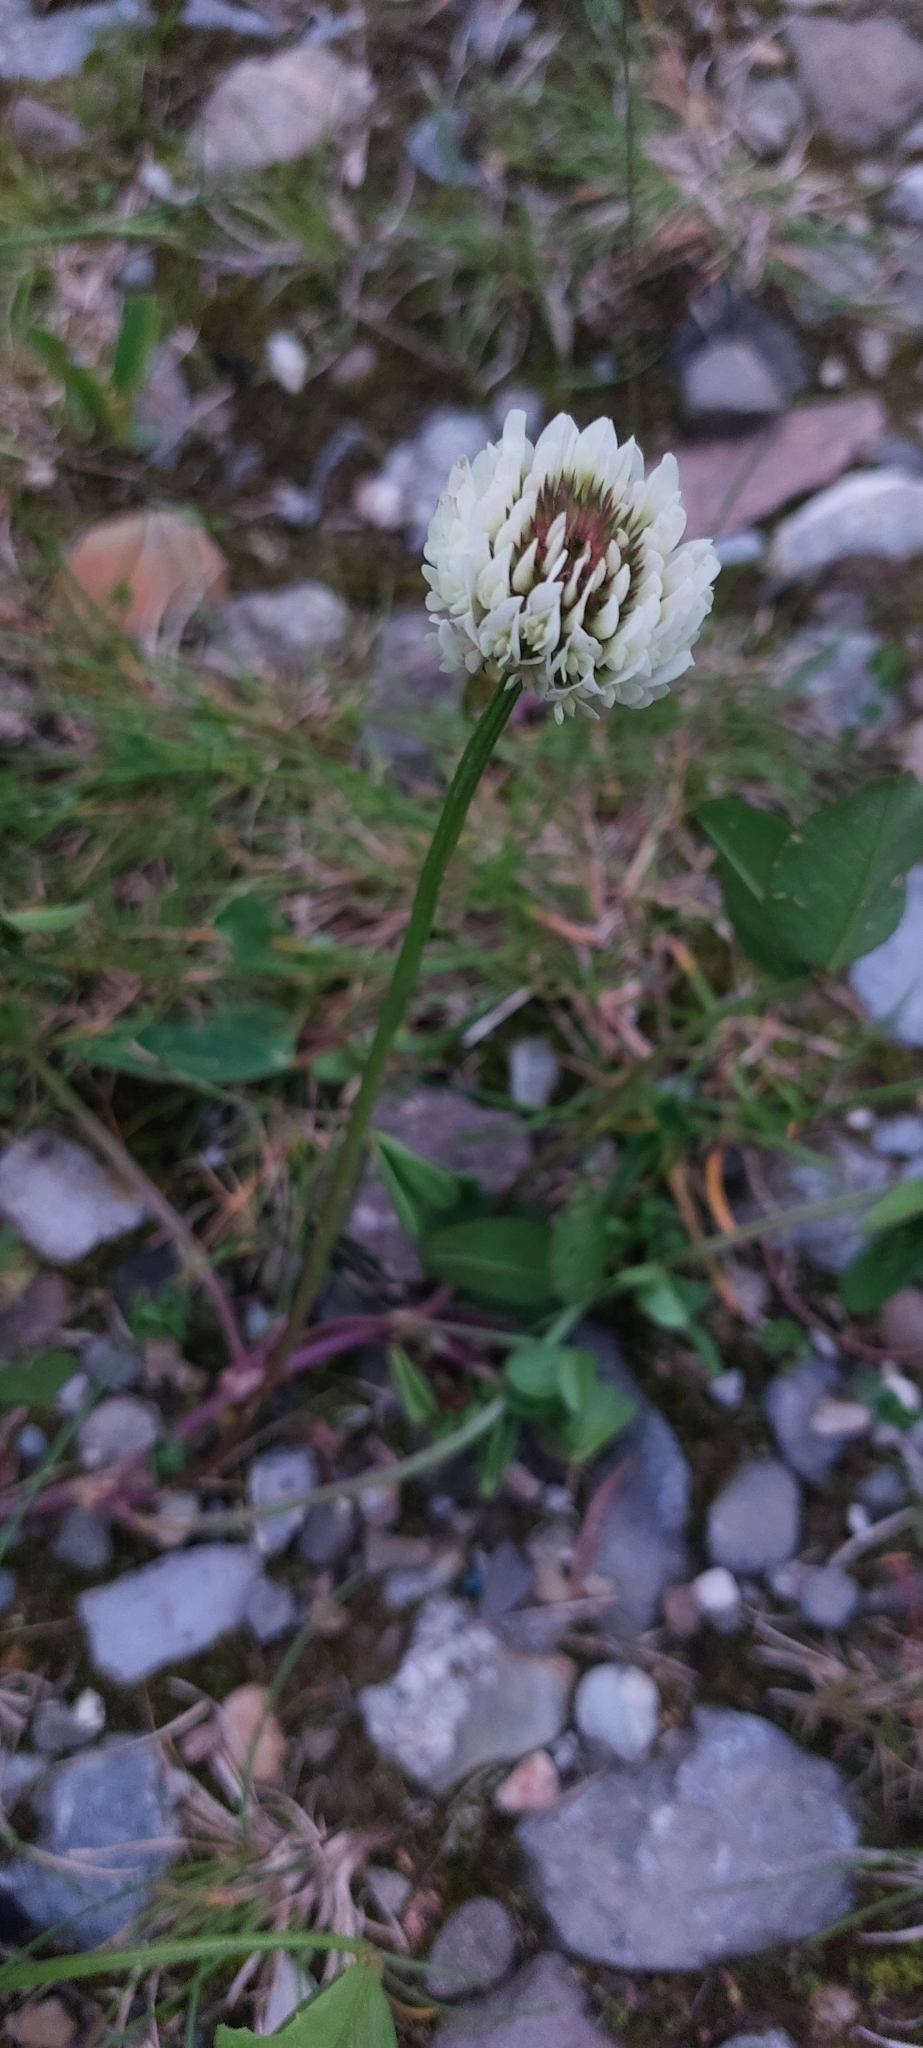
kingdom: Plantae
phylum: Tracheophyta
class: Magnoliopsida
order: Fabales
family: Fabaceae
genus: Trifolium
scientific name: Trifolium repens
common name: White clover
